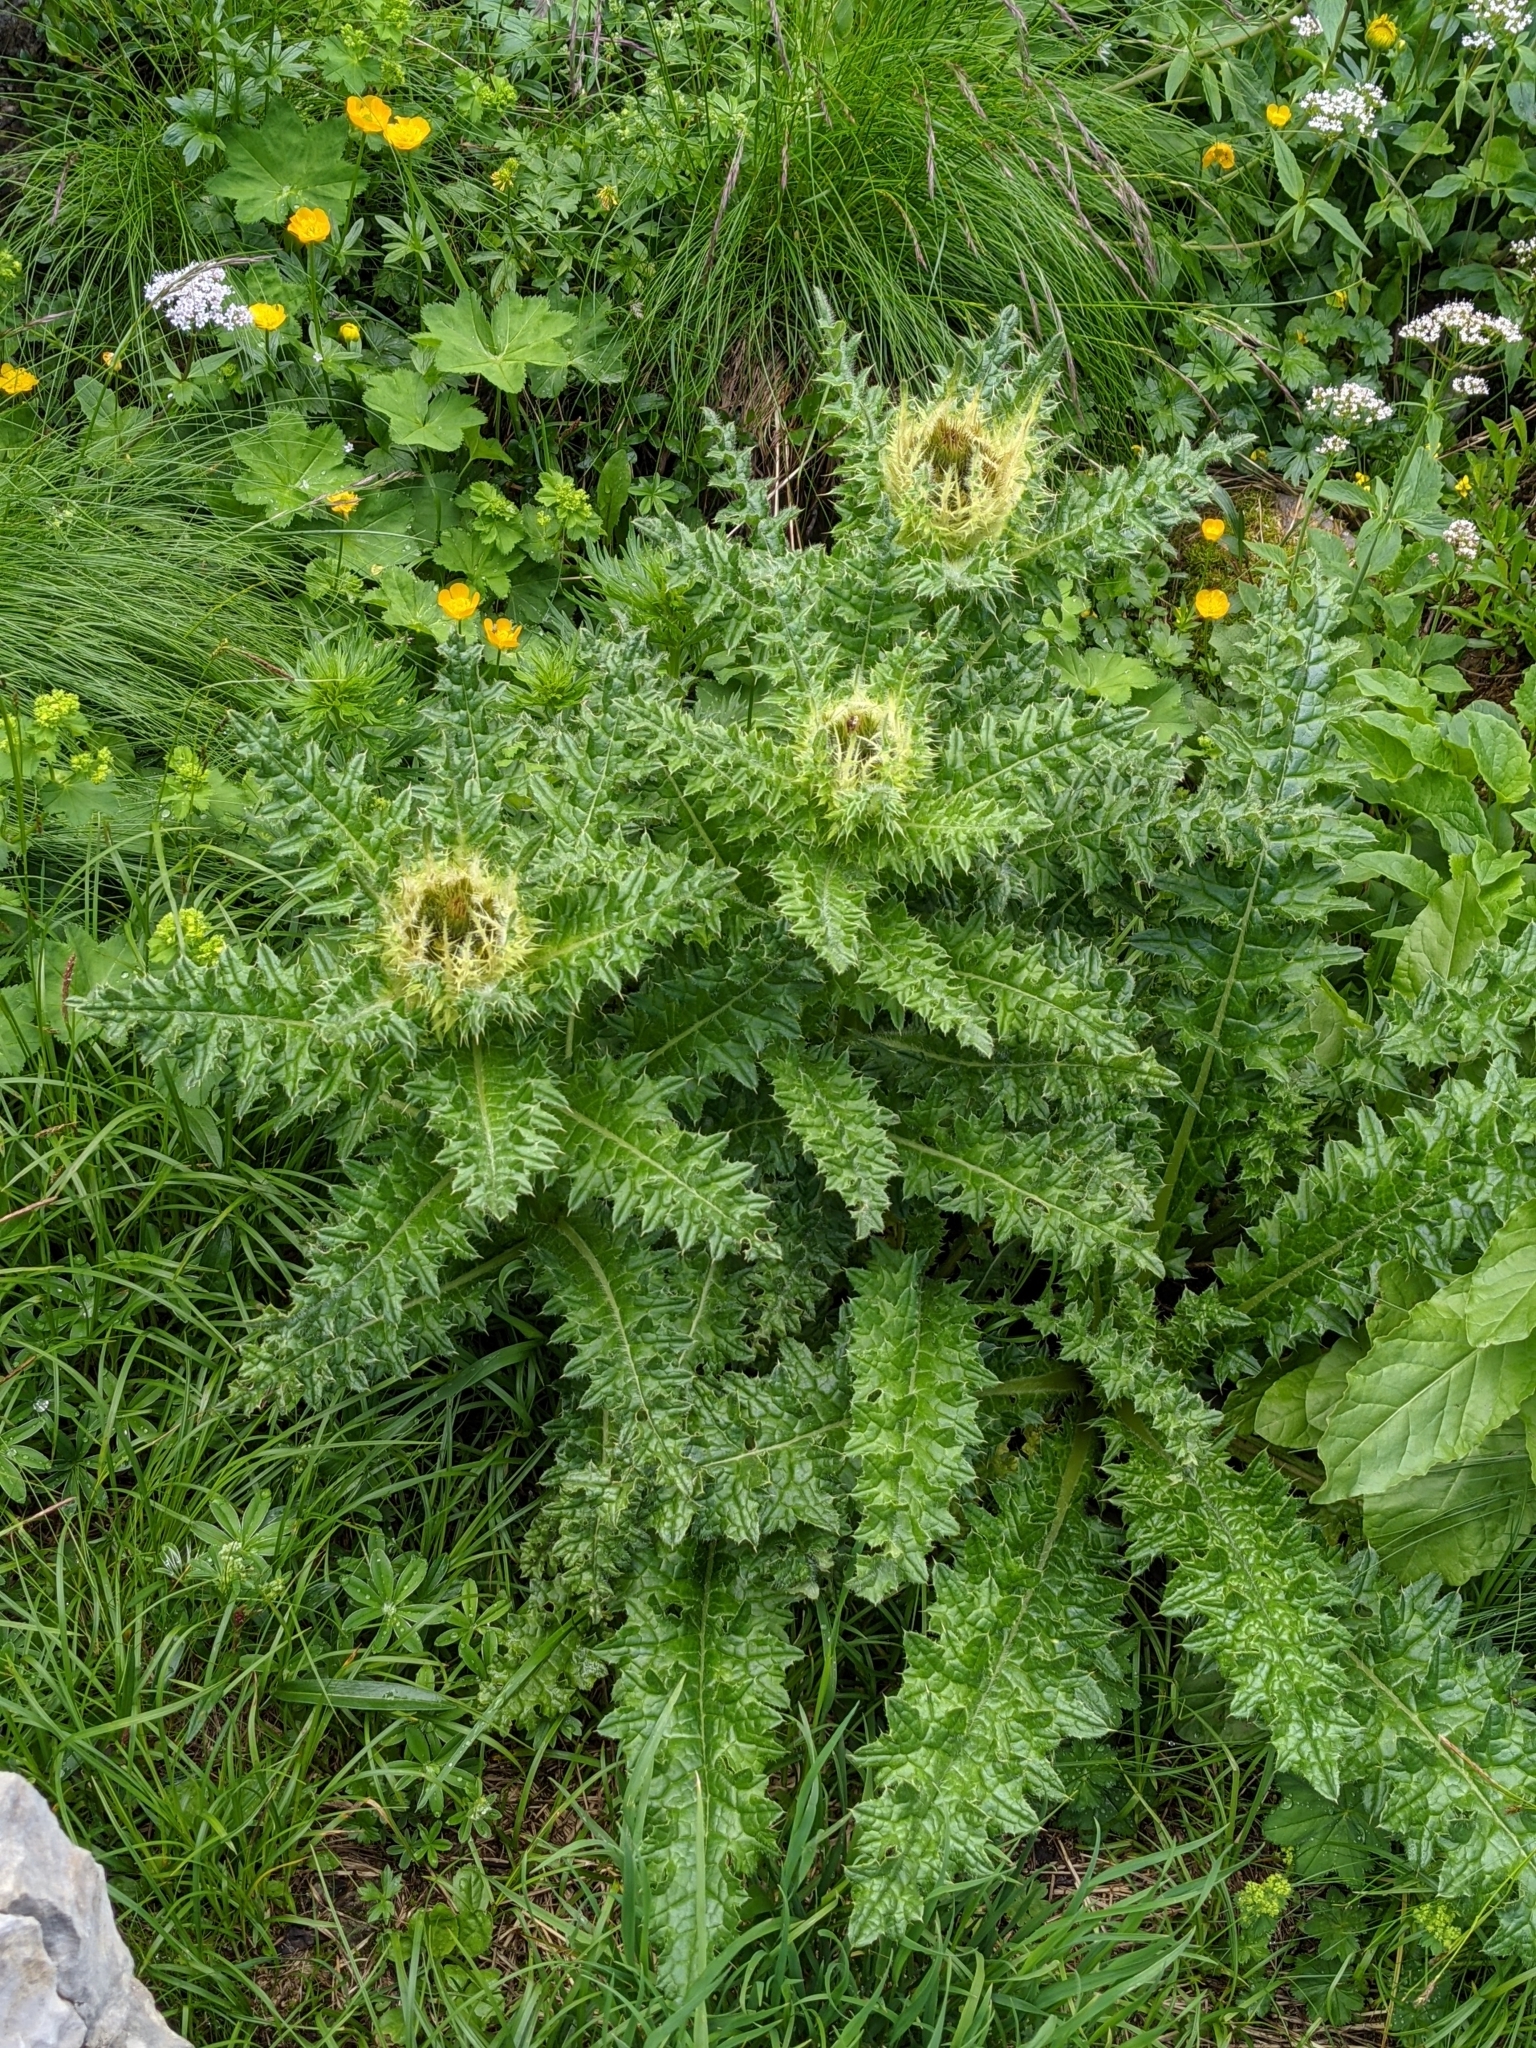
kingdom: Plantae
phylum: Tracheophyta
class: Magnoliopsida
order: Asterales
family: Asteraceae
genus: Cirsium
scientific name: Cirsium spinosissimum
